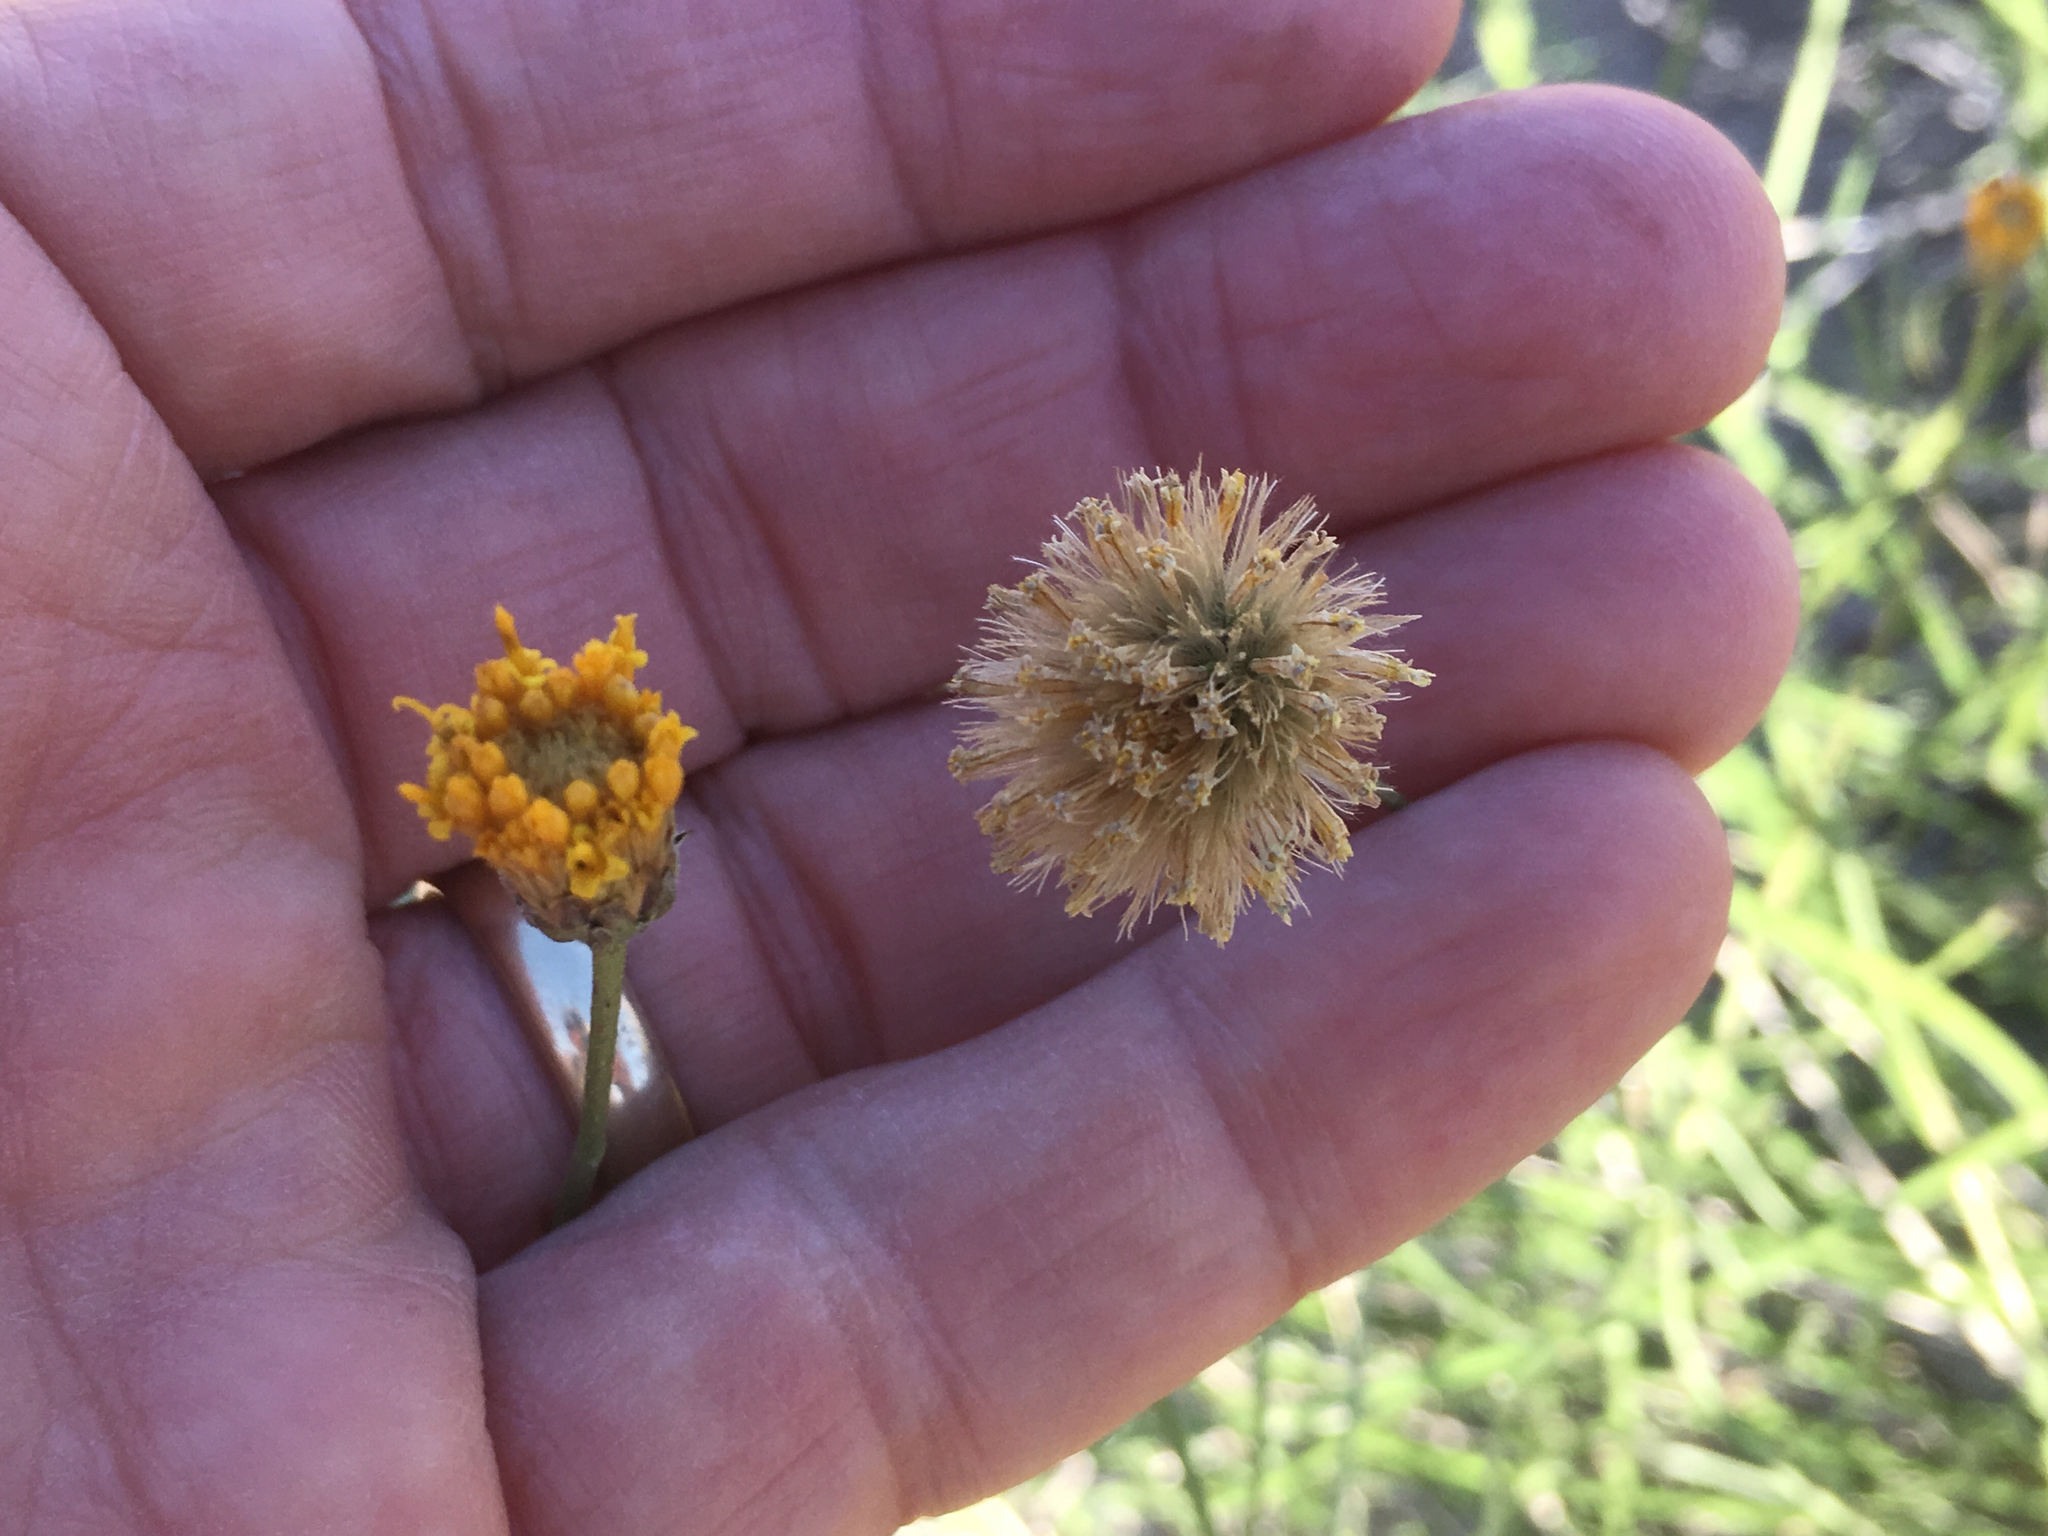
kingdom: Plantae
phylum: Tracheophyta
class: Magnoliopsida
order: Asterales
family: Asteraceae
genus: Bebbia
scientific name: Bebbia juncea
